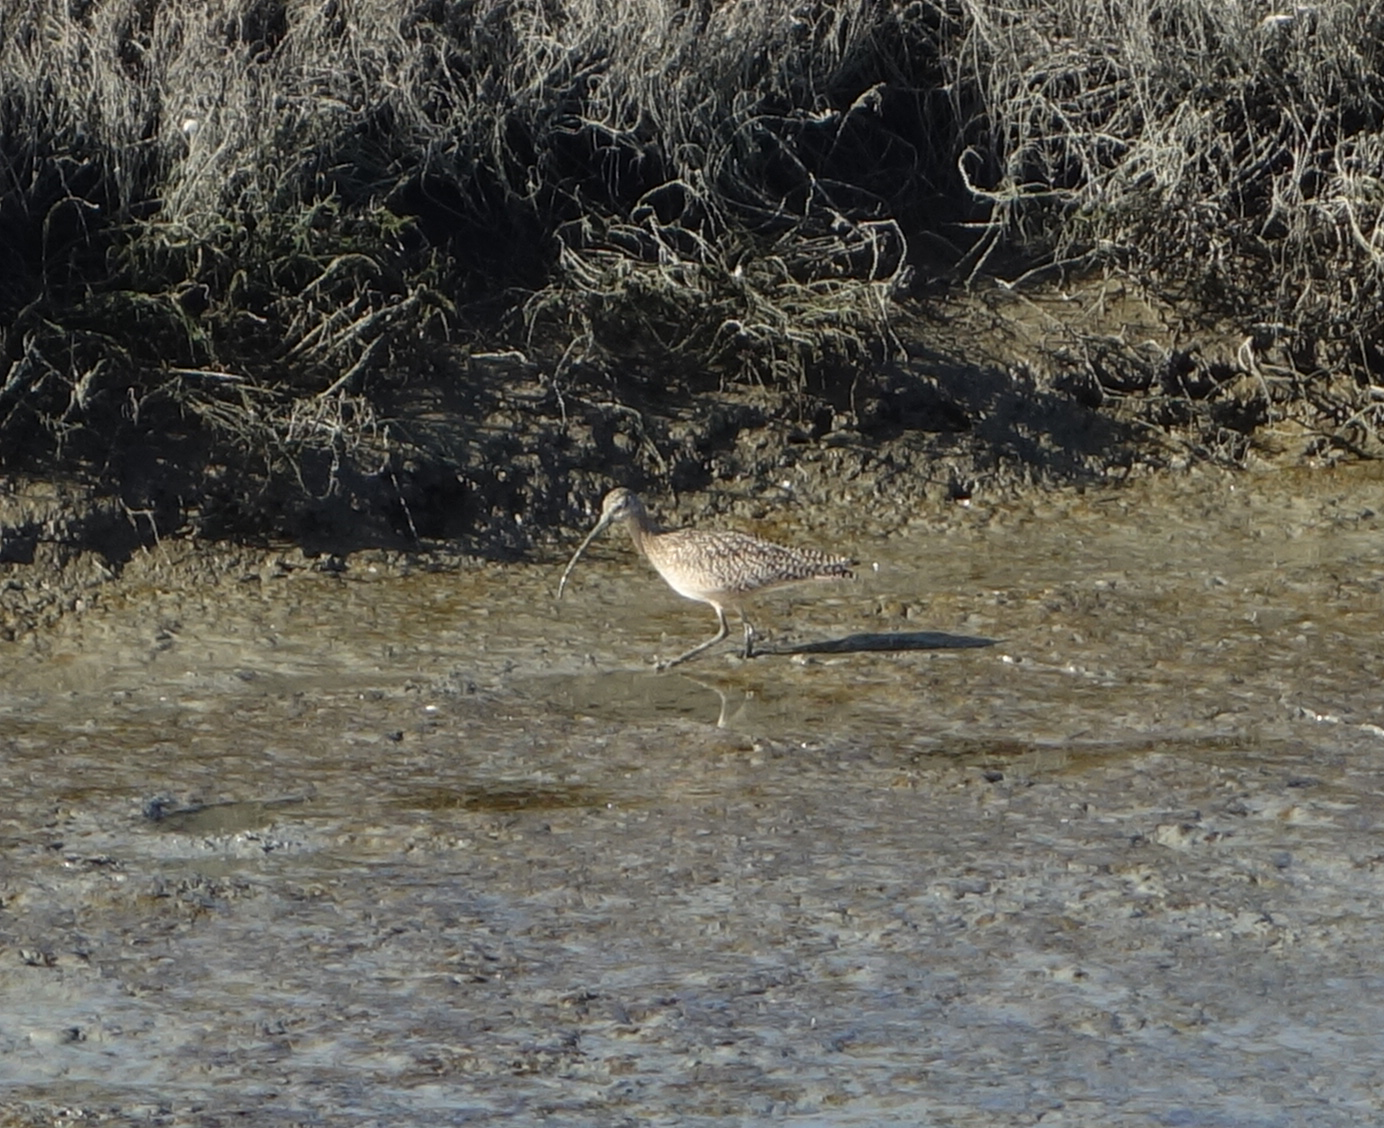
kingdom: Animalia
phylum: Chordata
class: Aves
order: Charadriiformes
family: Scolopacidae
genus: Numenius
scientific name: Numenius americanus
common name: Long-billed curlew
